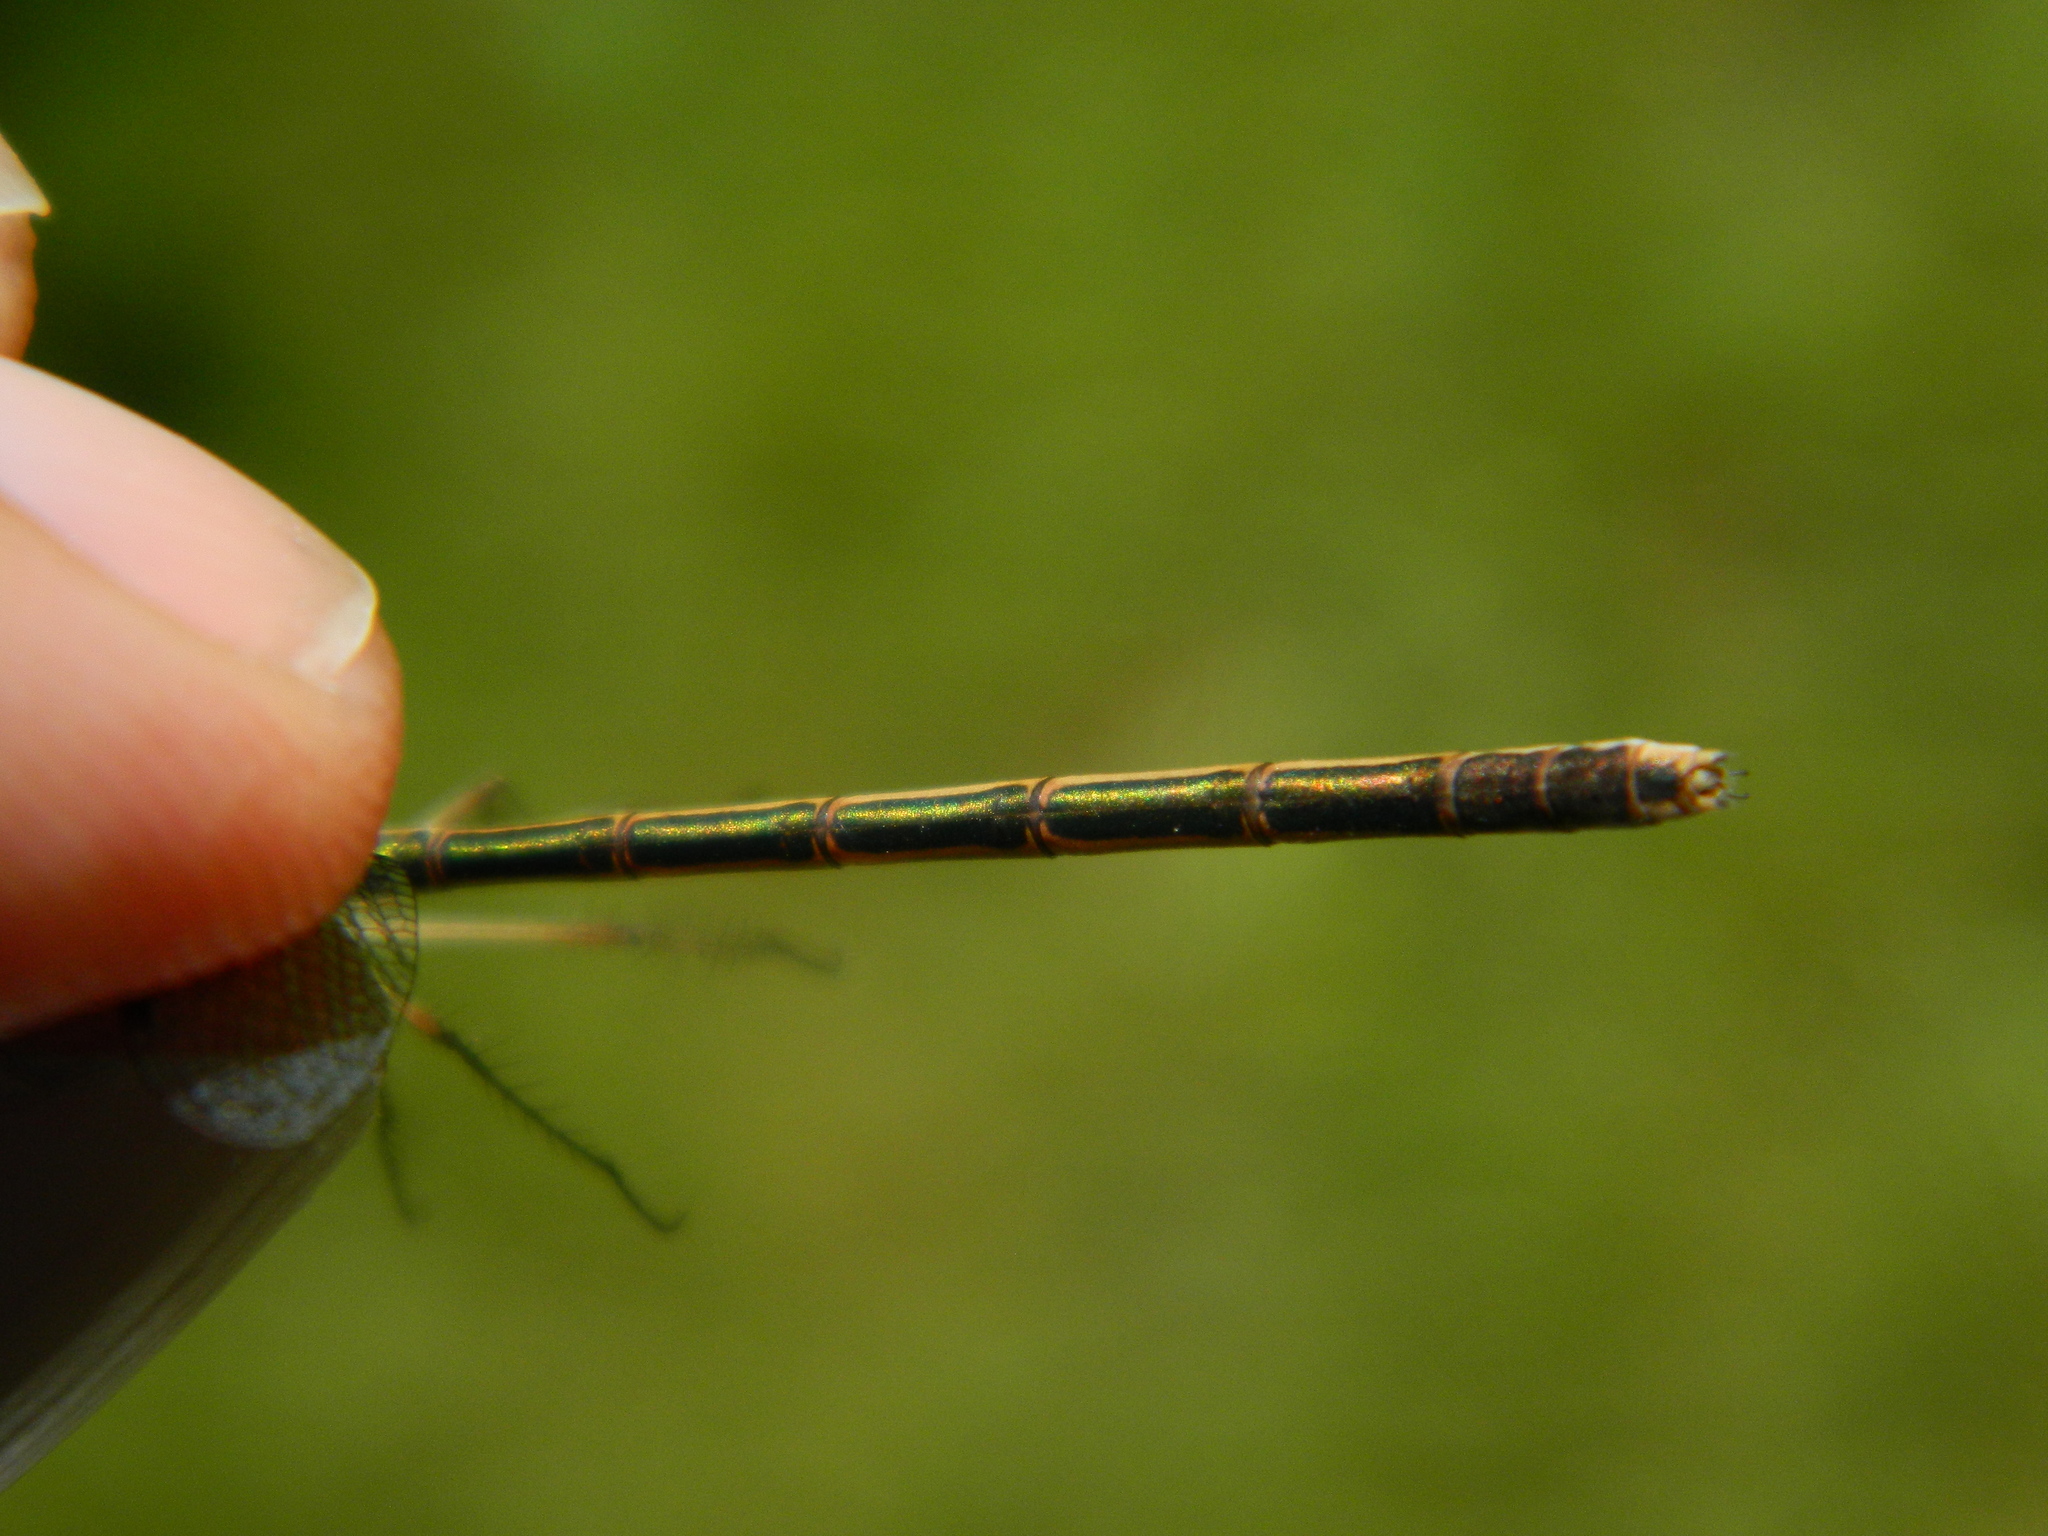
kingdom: Animalia
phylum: Arthropoda
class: Insecta
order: Odonata
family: Lestidae
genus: Lestes
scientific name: Lestes disjunctus
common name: Northern spreadwing
